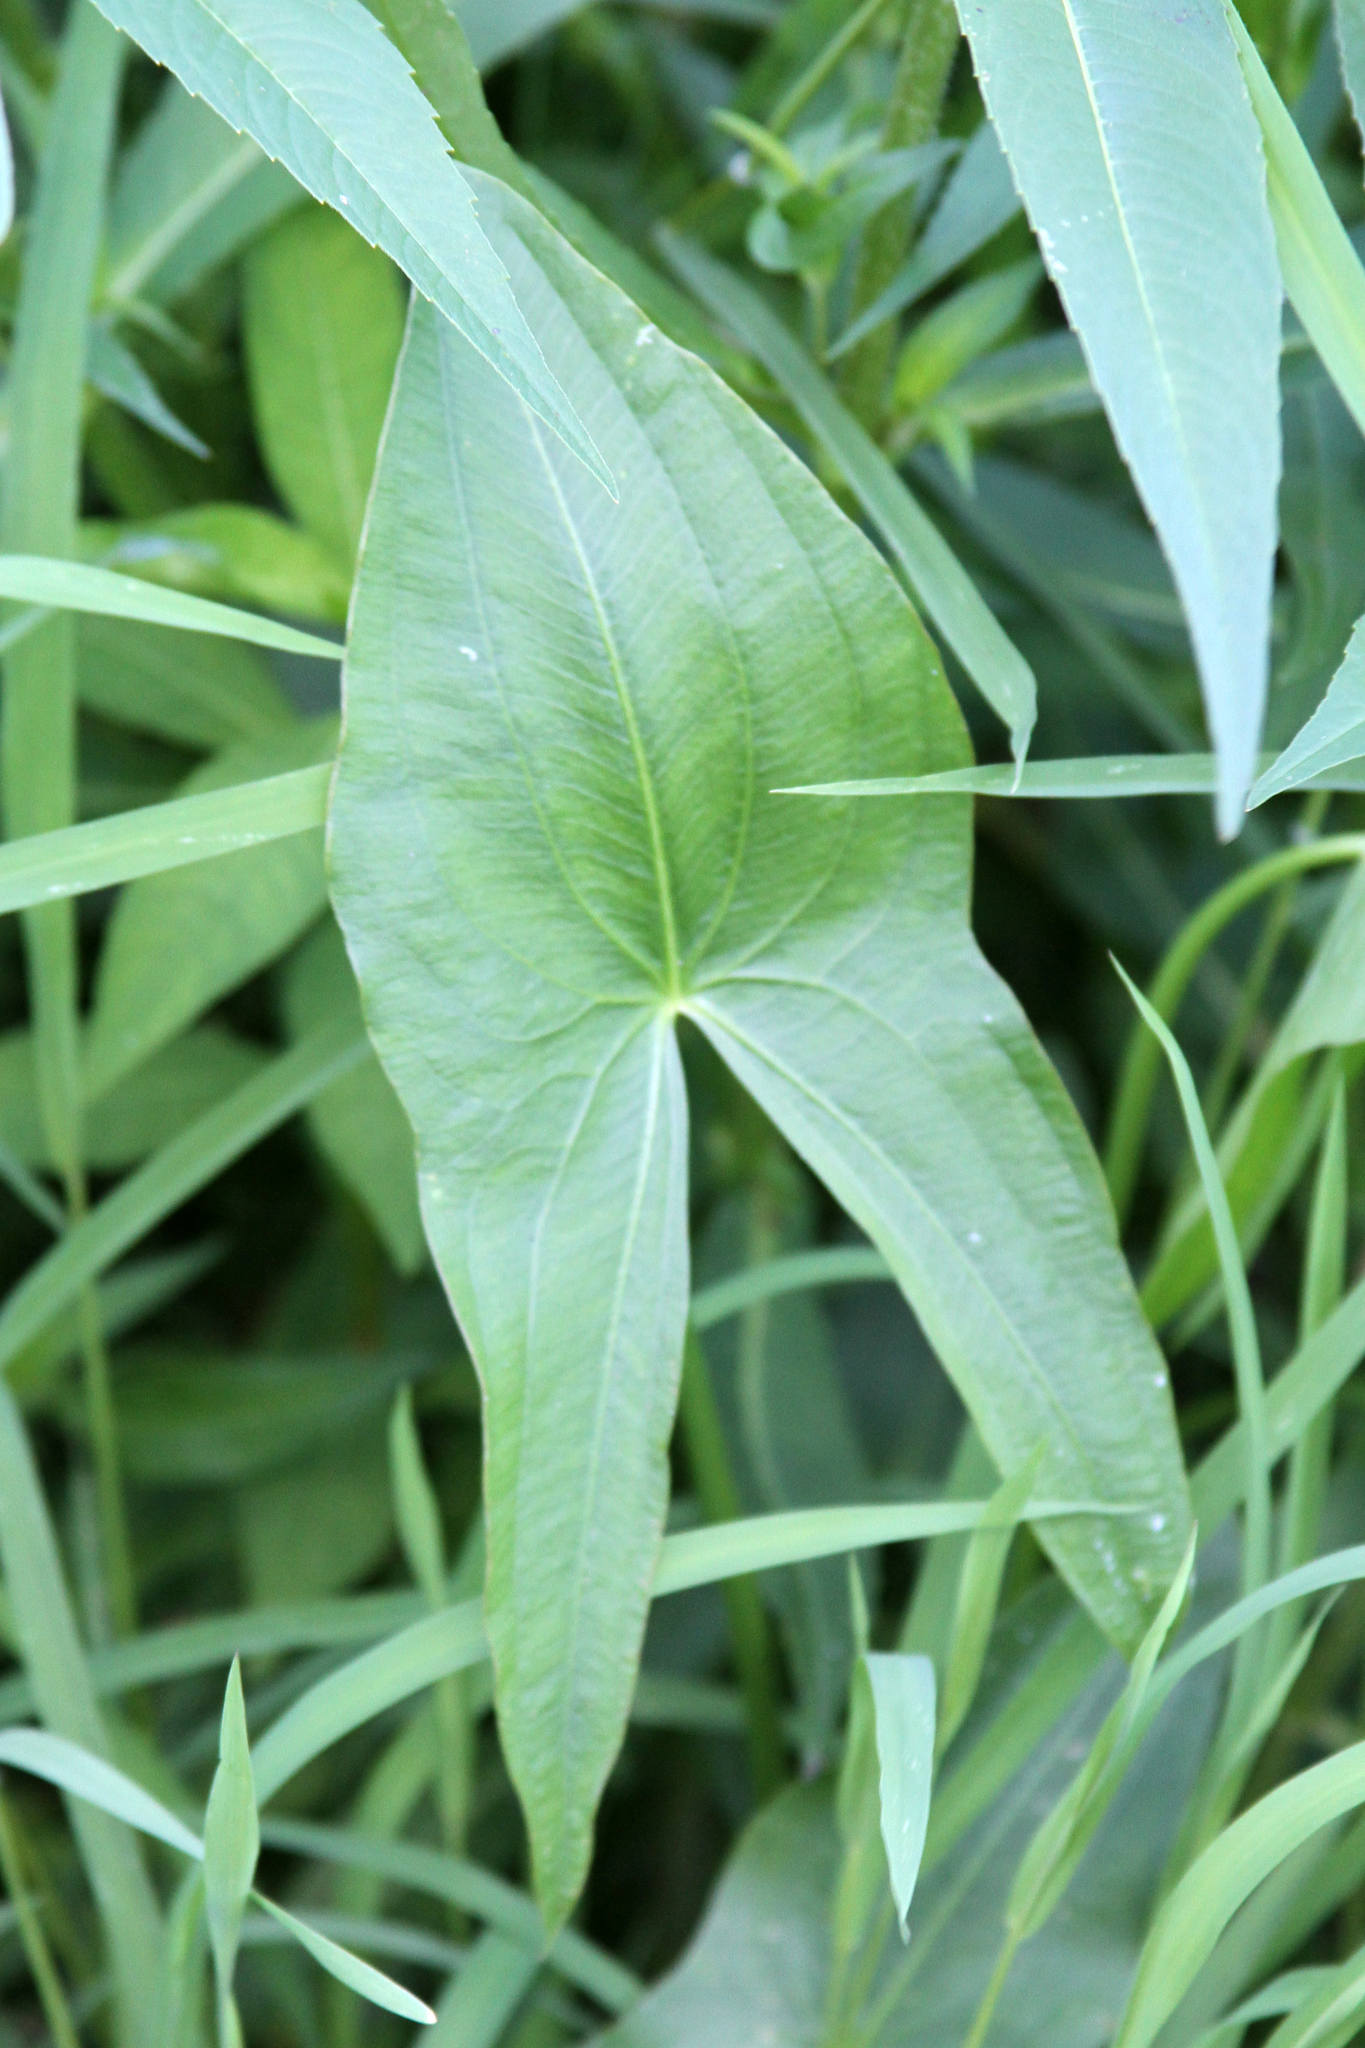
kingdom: Plantae
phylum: Tracheophyta
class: Liliopsida
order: Alismatales
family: Alismataceae
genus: Sagittaria
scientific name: Sagittaria latifolia
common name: Duck-potato
